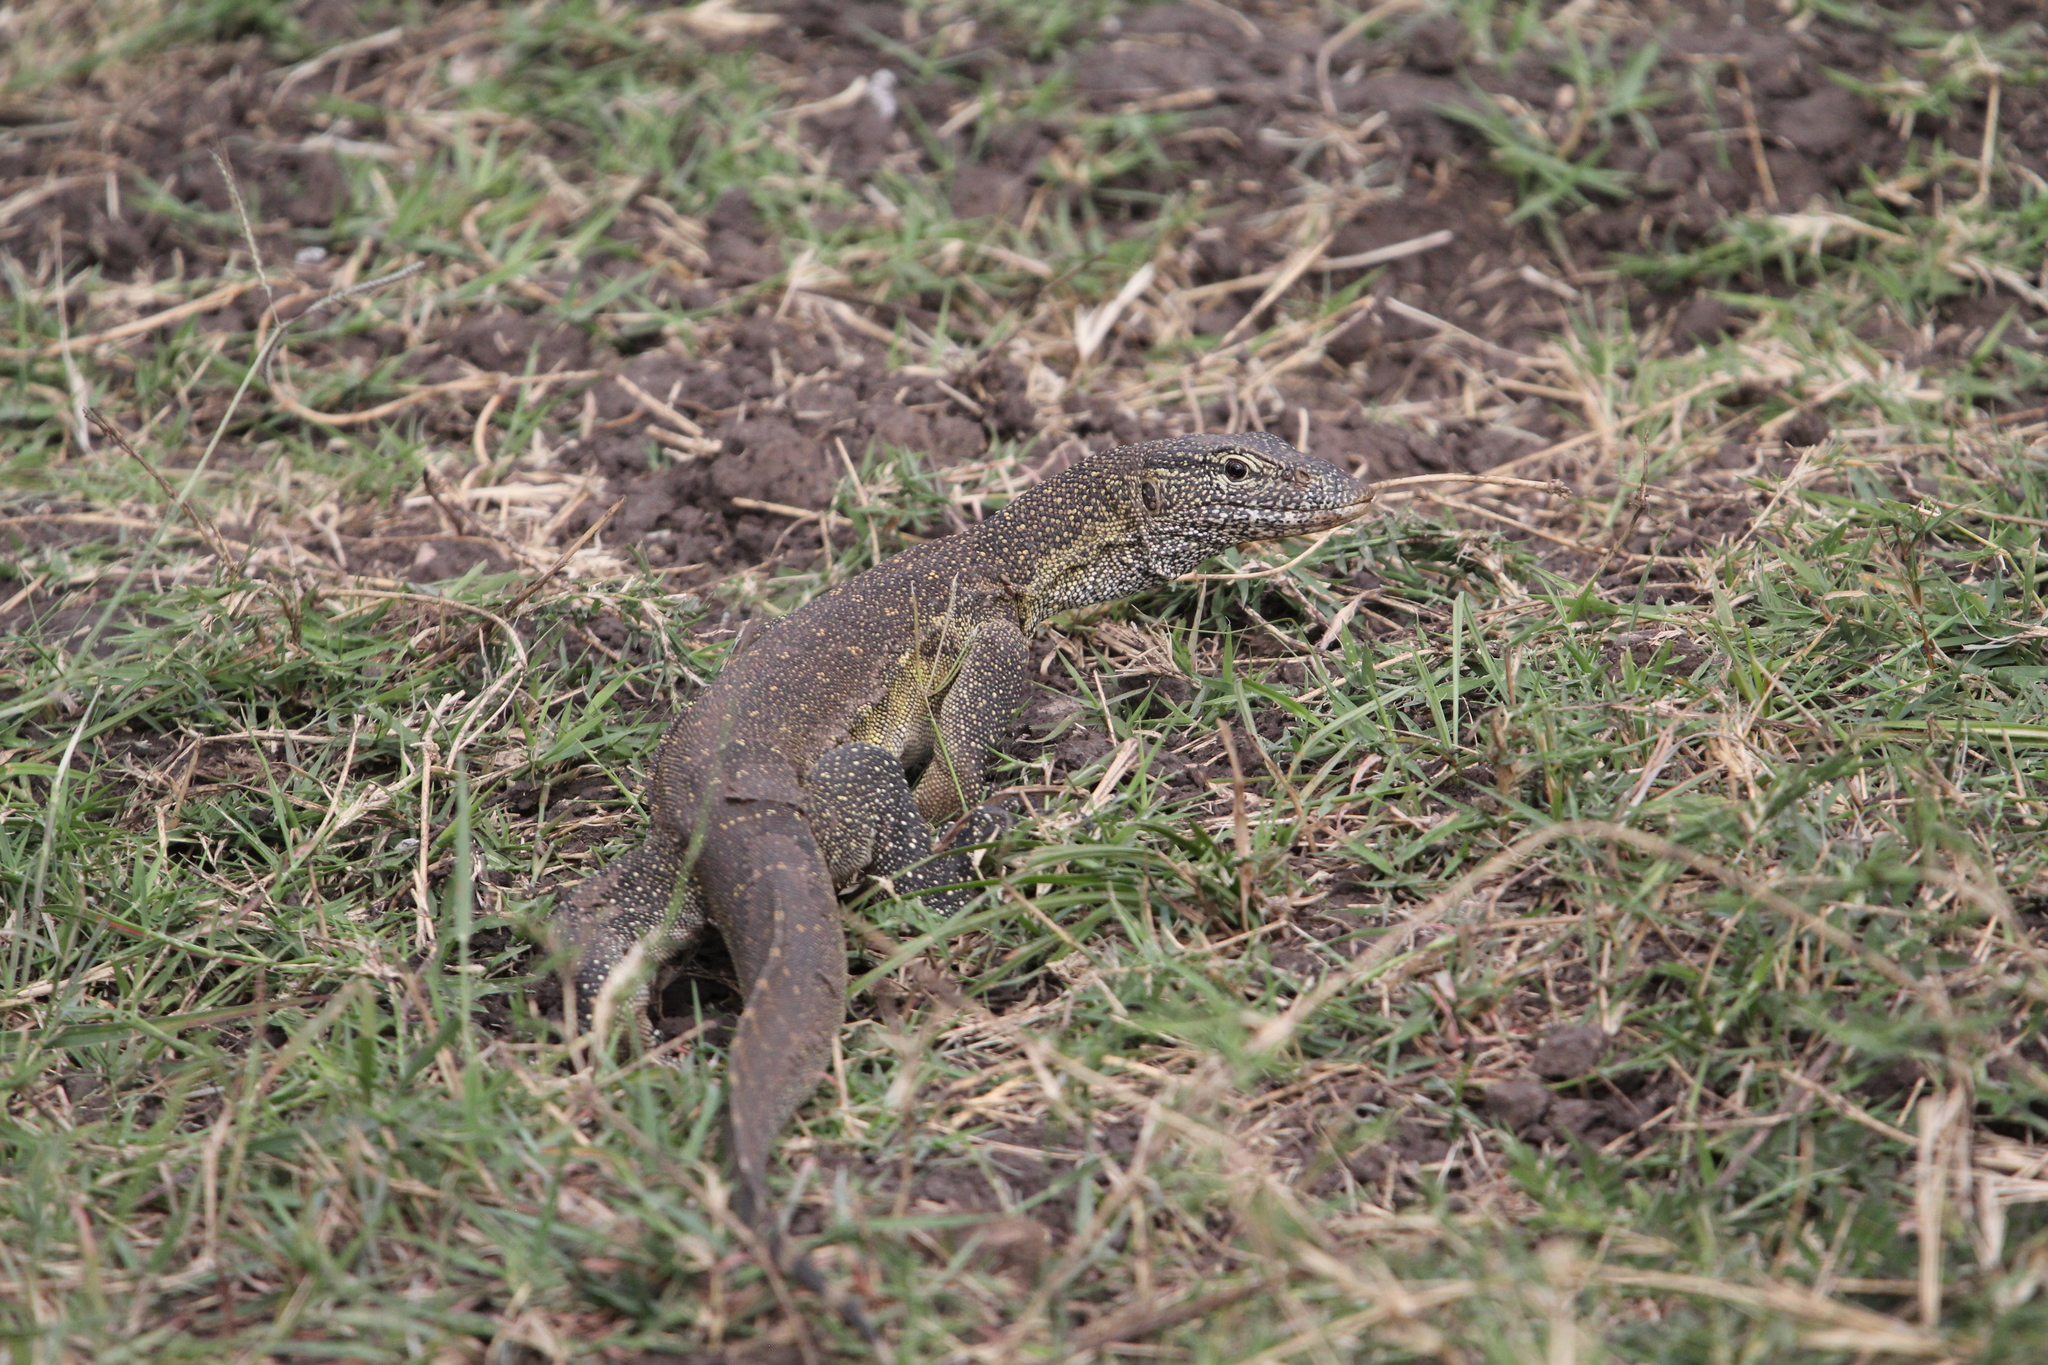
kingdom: Animalia
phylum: Chordata
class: Squamata
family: Varanidae
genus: Varanus
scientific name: Varanus niloticus
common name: Nile monitor
